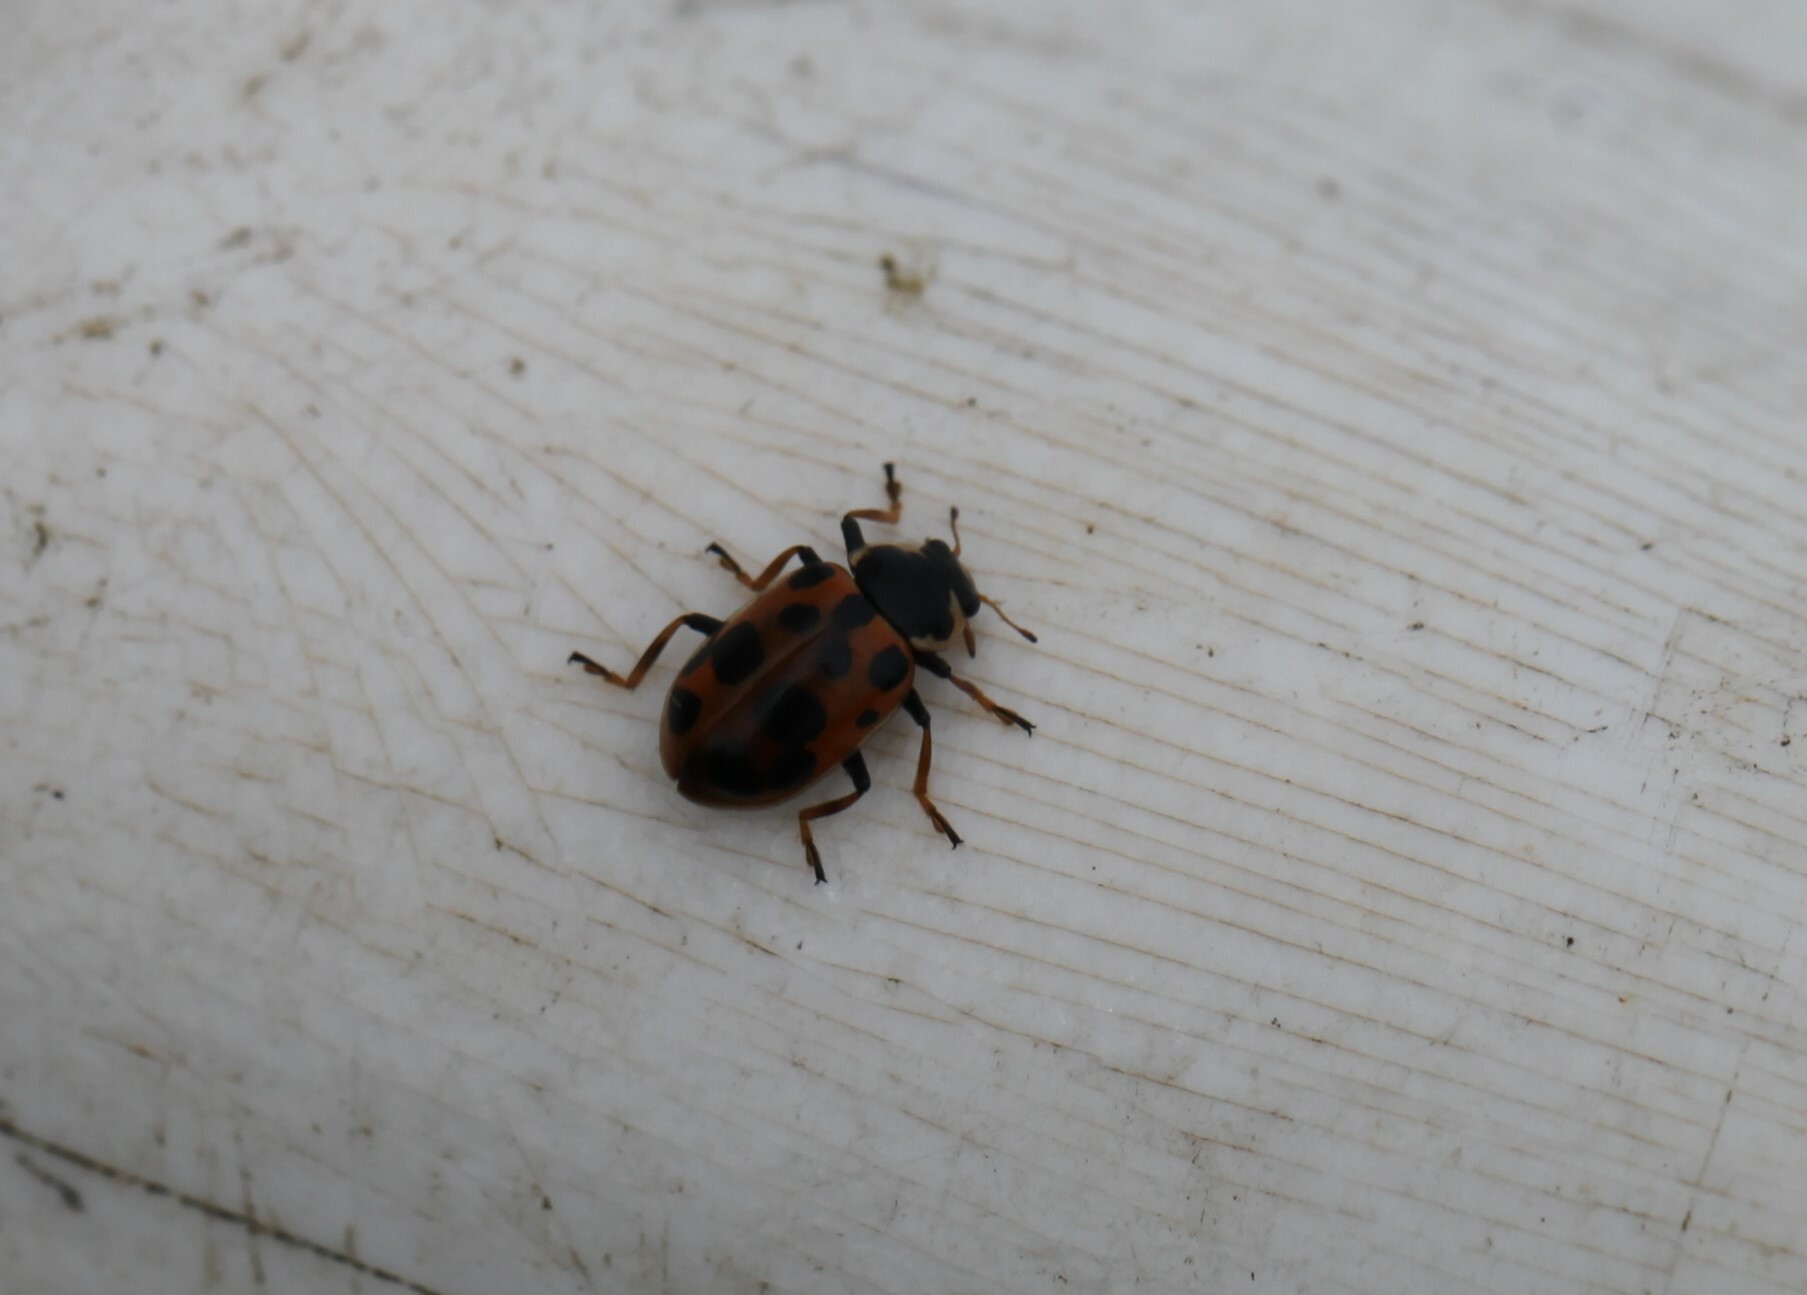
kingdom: Animalia
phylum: Arthropoda
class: Insecta
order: Coleoptera
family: Coccinellidae
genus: Hippodamia
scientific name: Hippodamia tredecimpunctata
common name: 13-spot ladybird
